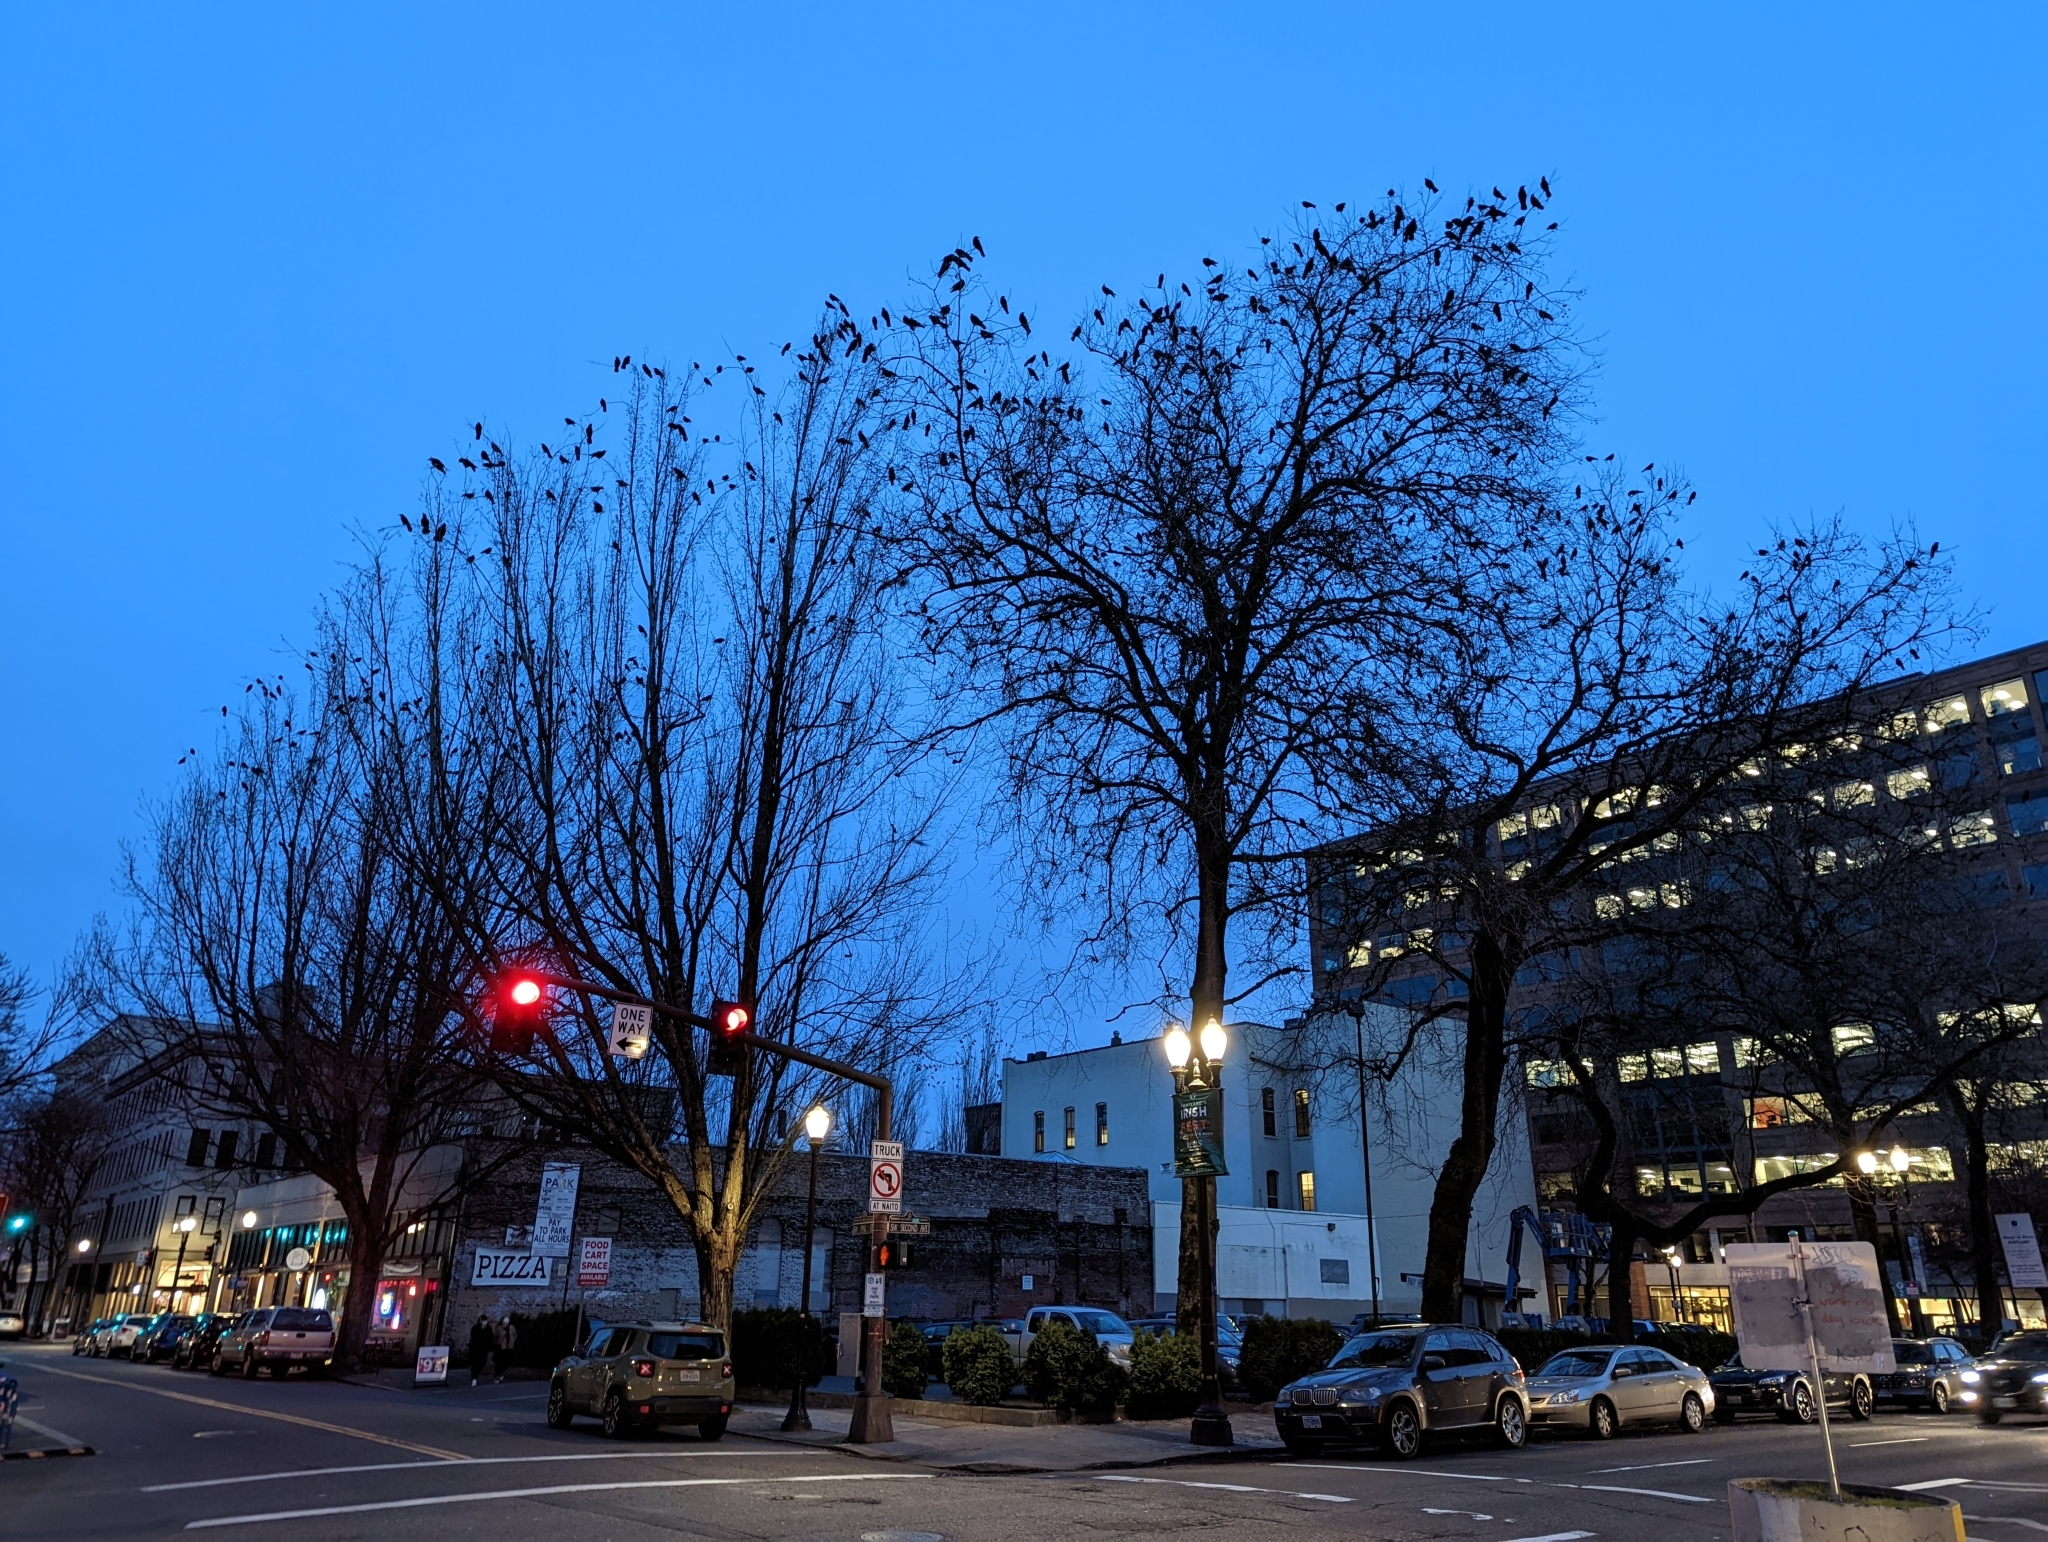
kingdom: Animalia
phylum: Chordata
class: Aves
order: Passeriformes
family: Corvidae
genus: Corvus
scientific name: Corvus brachyrhynchos
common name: American crow
